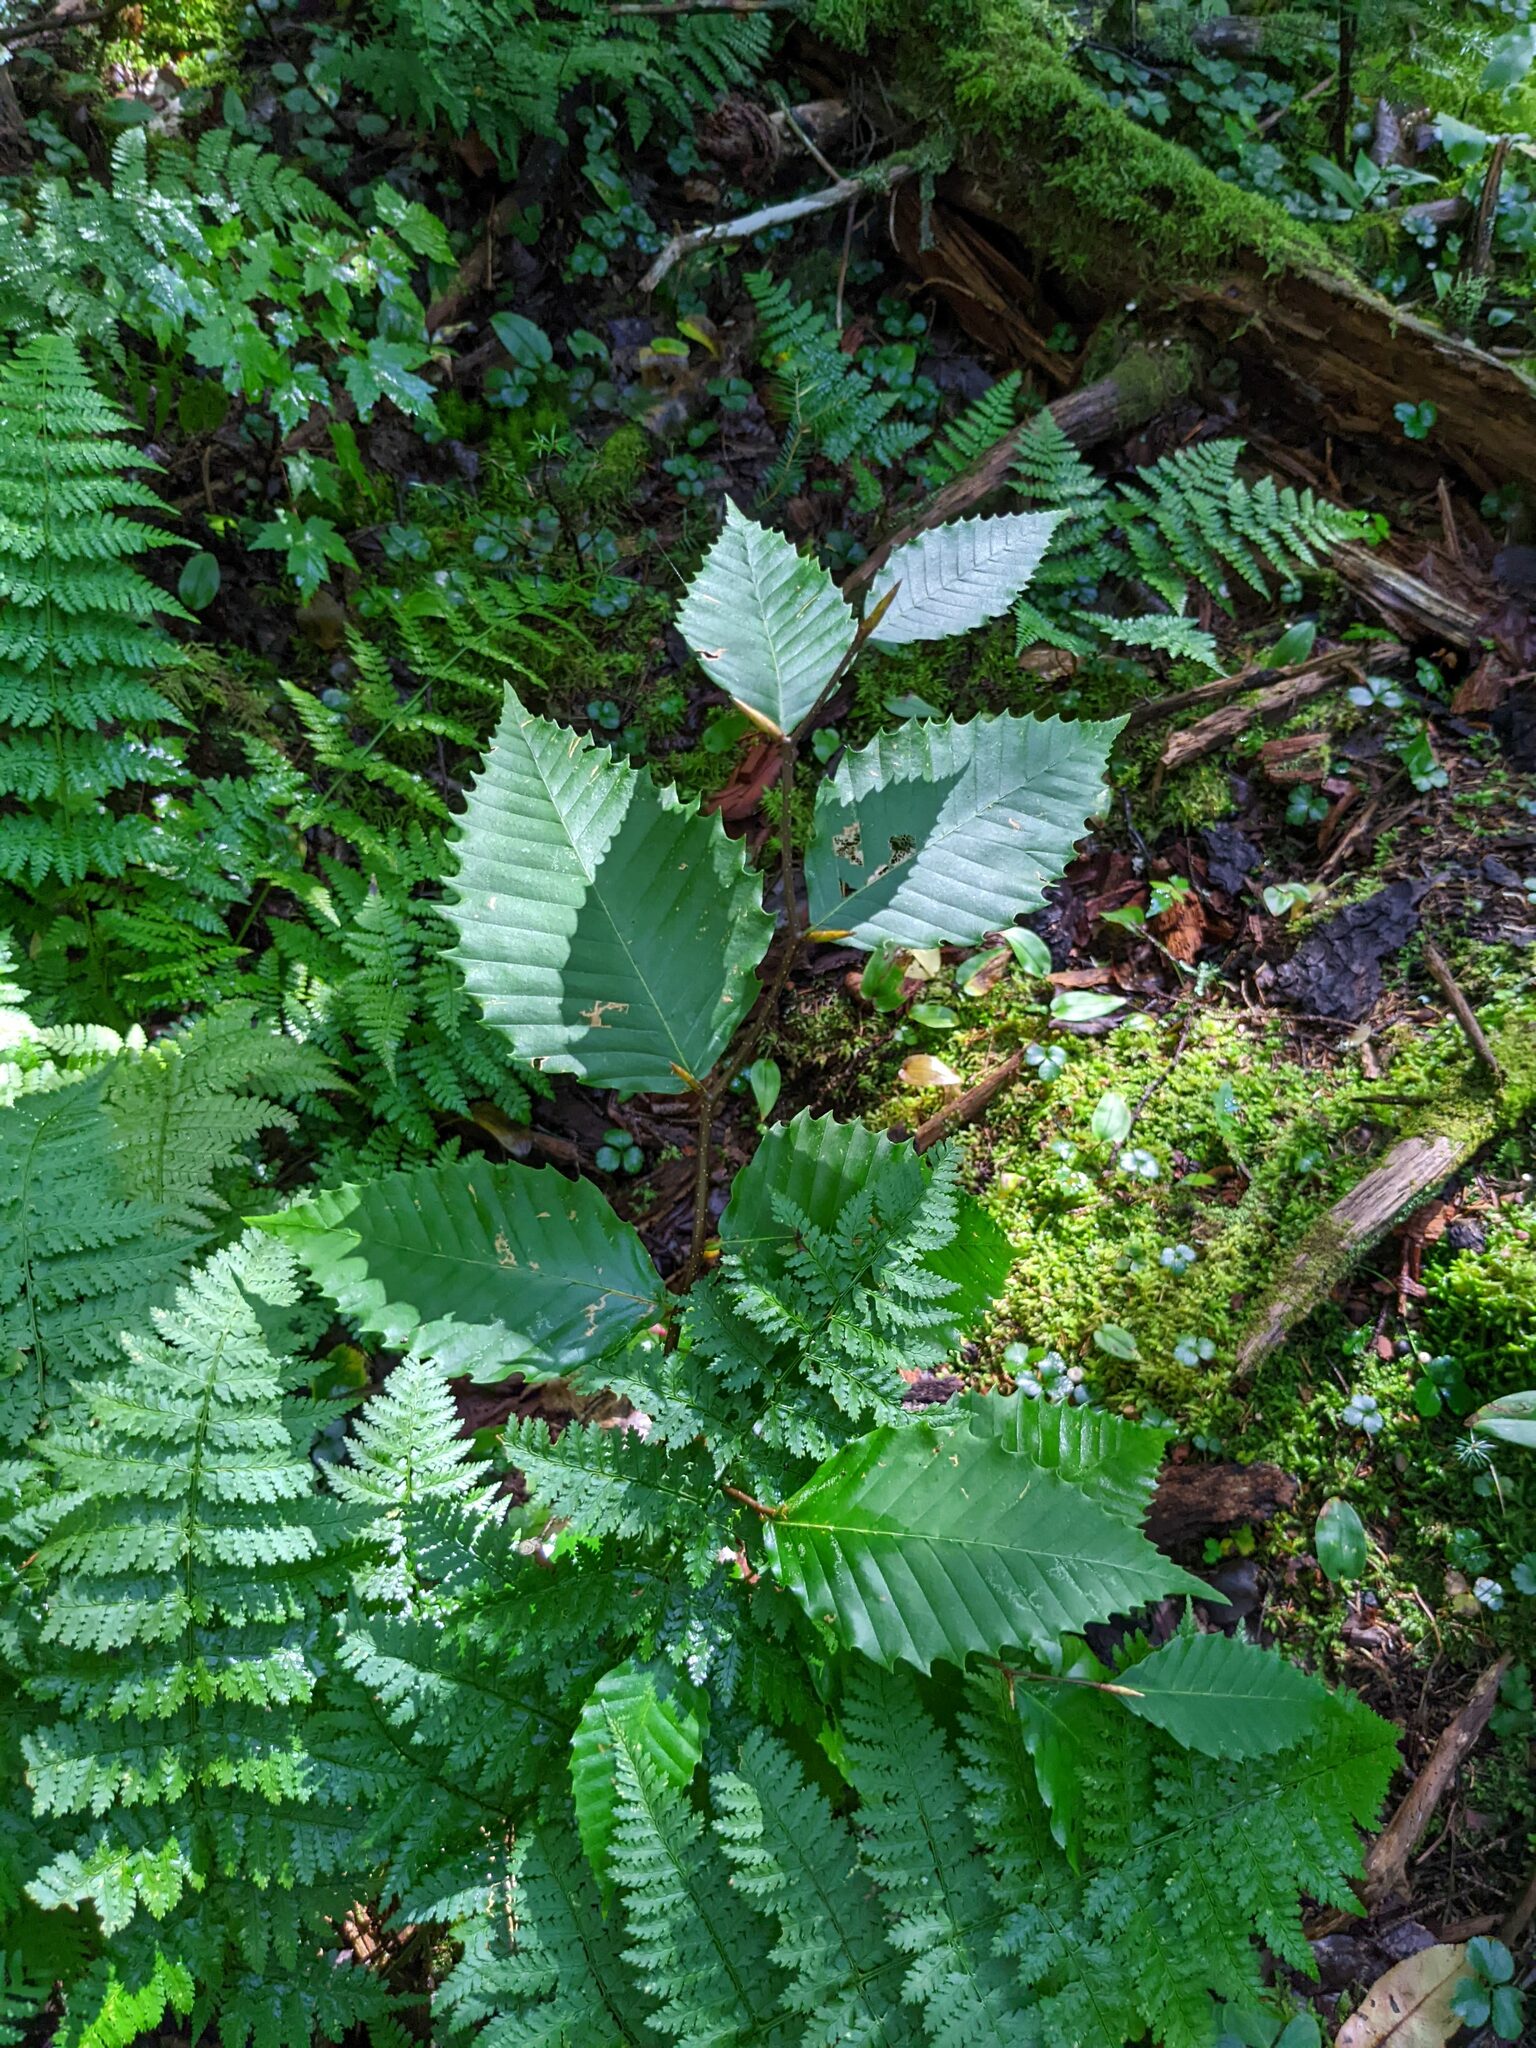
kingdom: Plantae
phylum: Tracheophyta
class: Magnoliopsida
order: Fagales
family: Fagaceae
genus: Fagus
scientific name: Fagus grandifolia
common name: American beech
